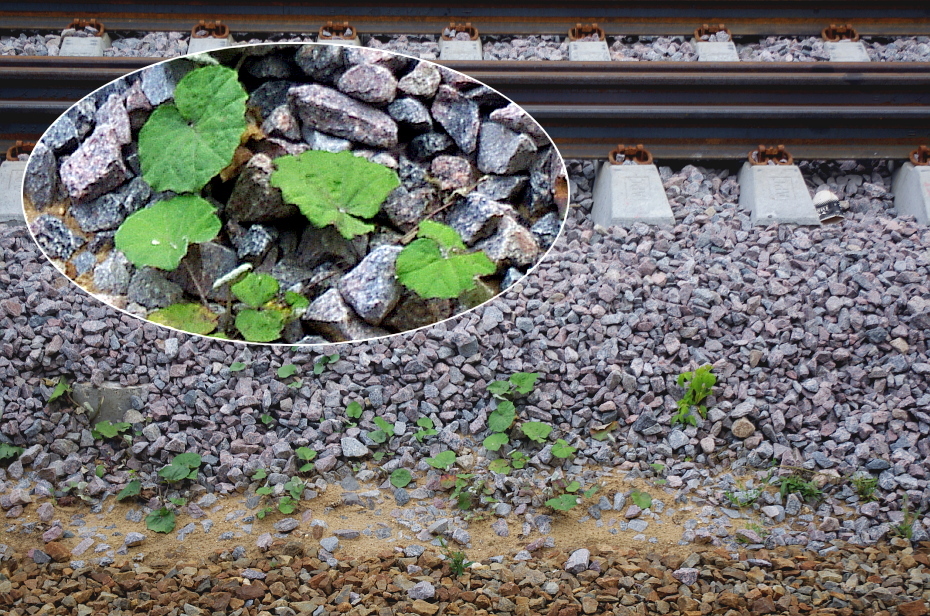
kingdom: Plantae
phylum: Tracheophyta
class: Magnoliopsida
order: Asterales
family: Asteraceae
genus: Tussilago
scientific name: Tussilago farfara
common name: Coltsfoot
